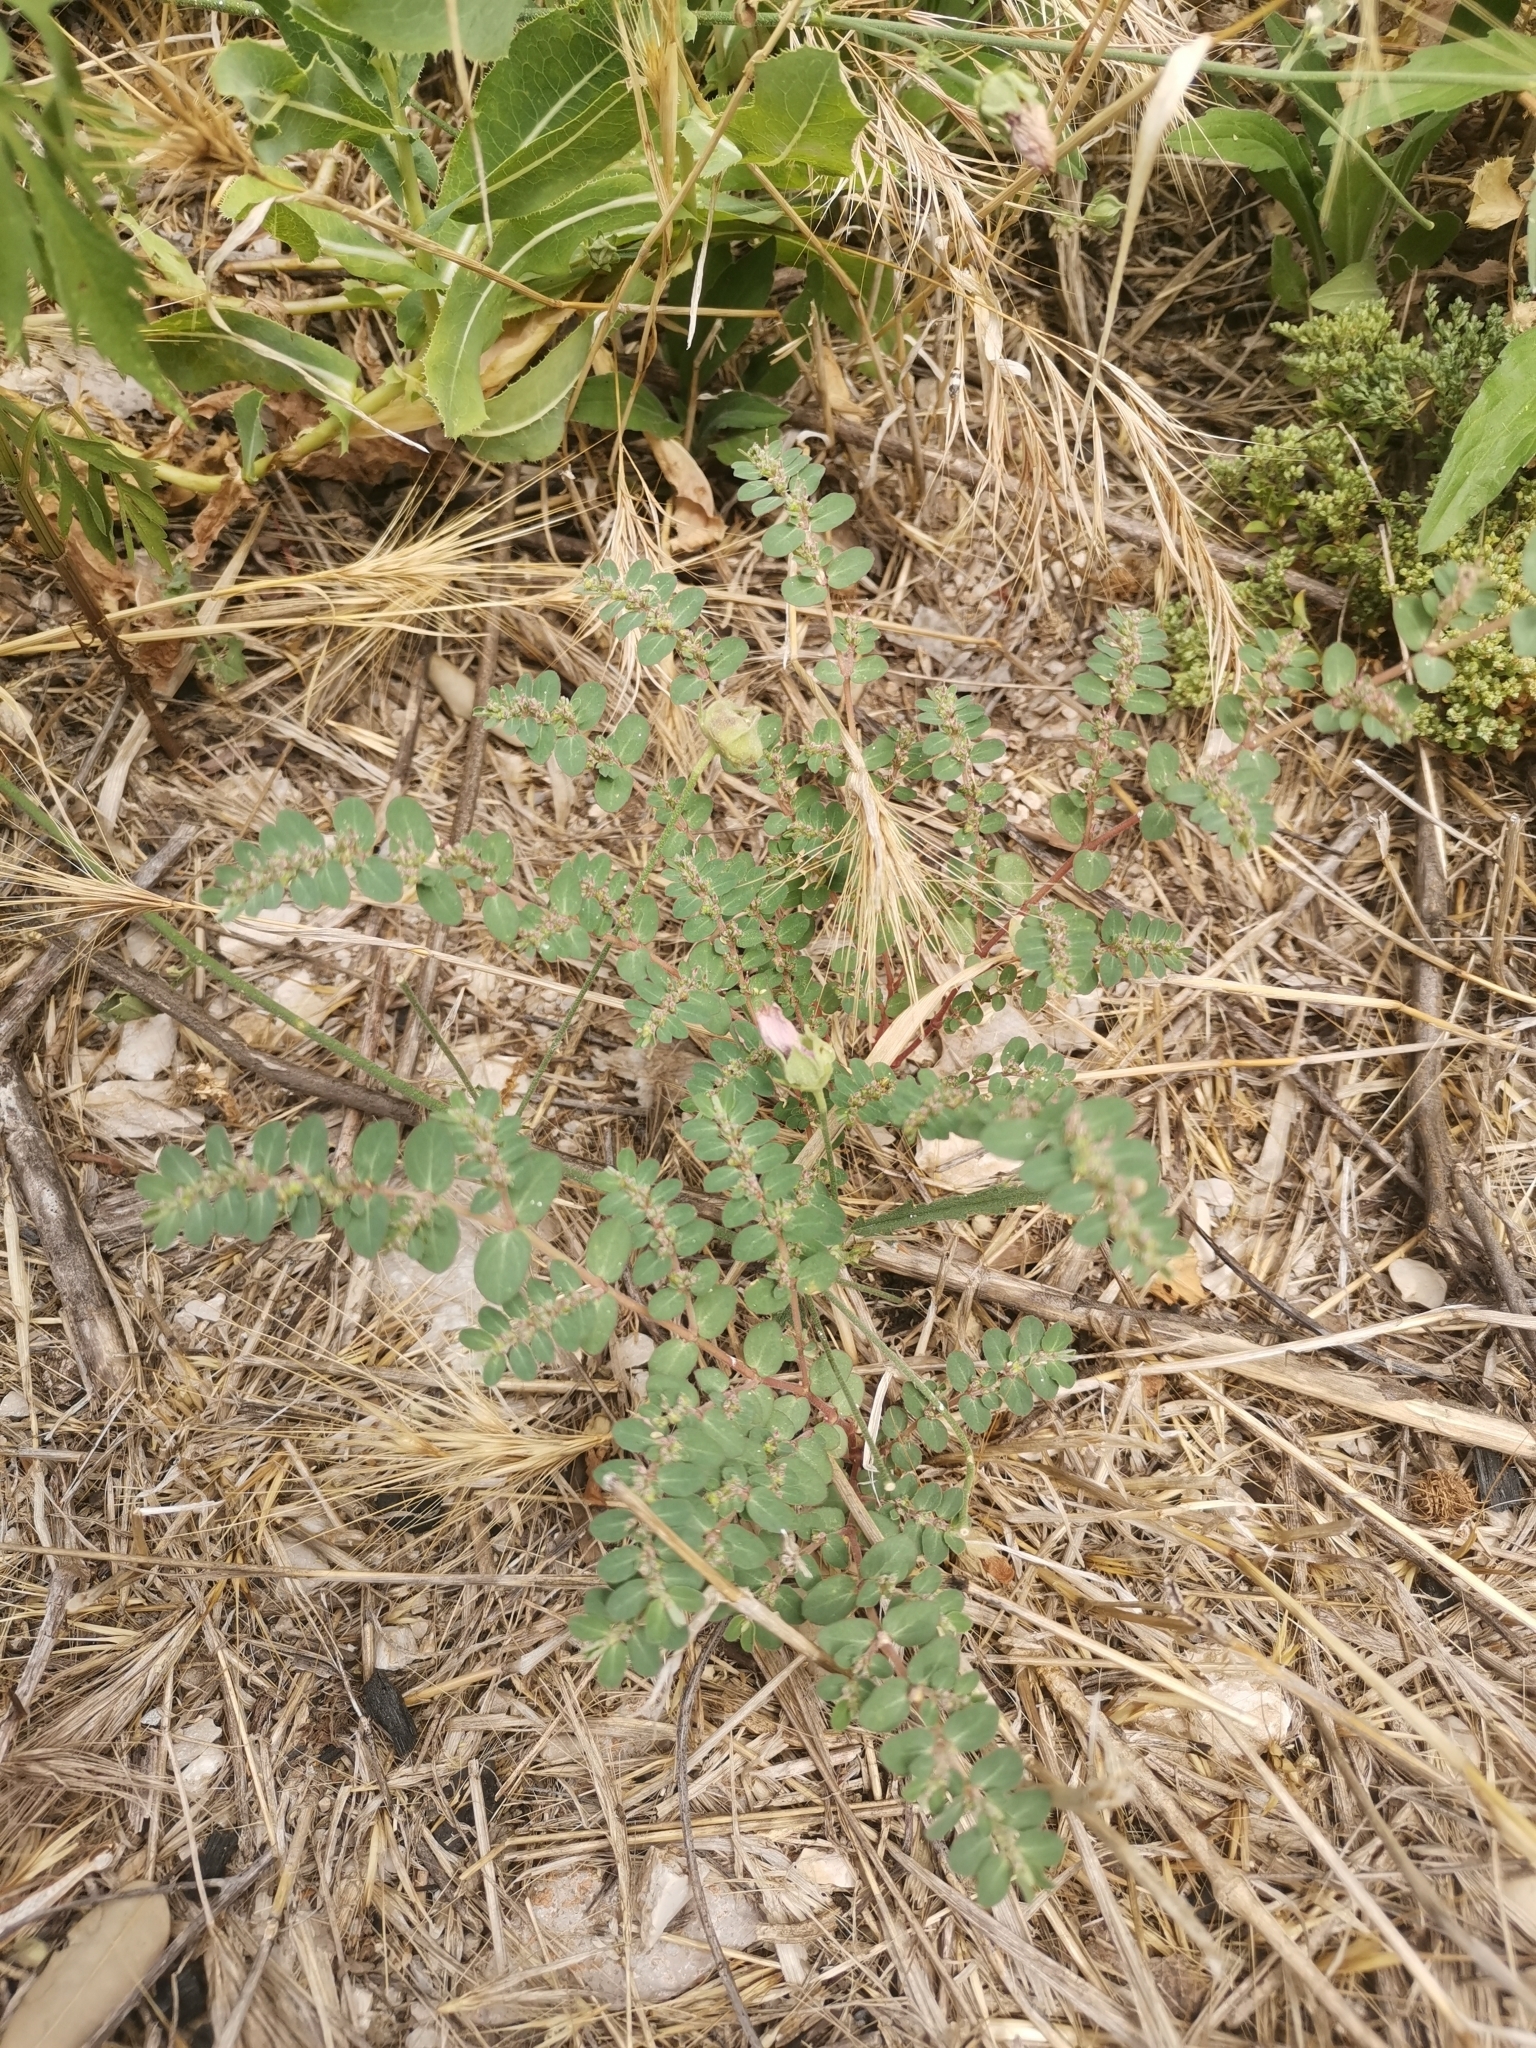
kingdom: Plantae
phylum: Tracheophyta
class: Magnoliopsida
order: Malpighiales
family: Euphorbiaceae
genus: Euphorbia
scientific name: Euphorbia prostrata
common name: Prostrate sandmat
